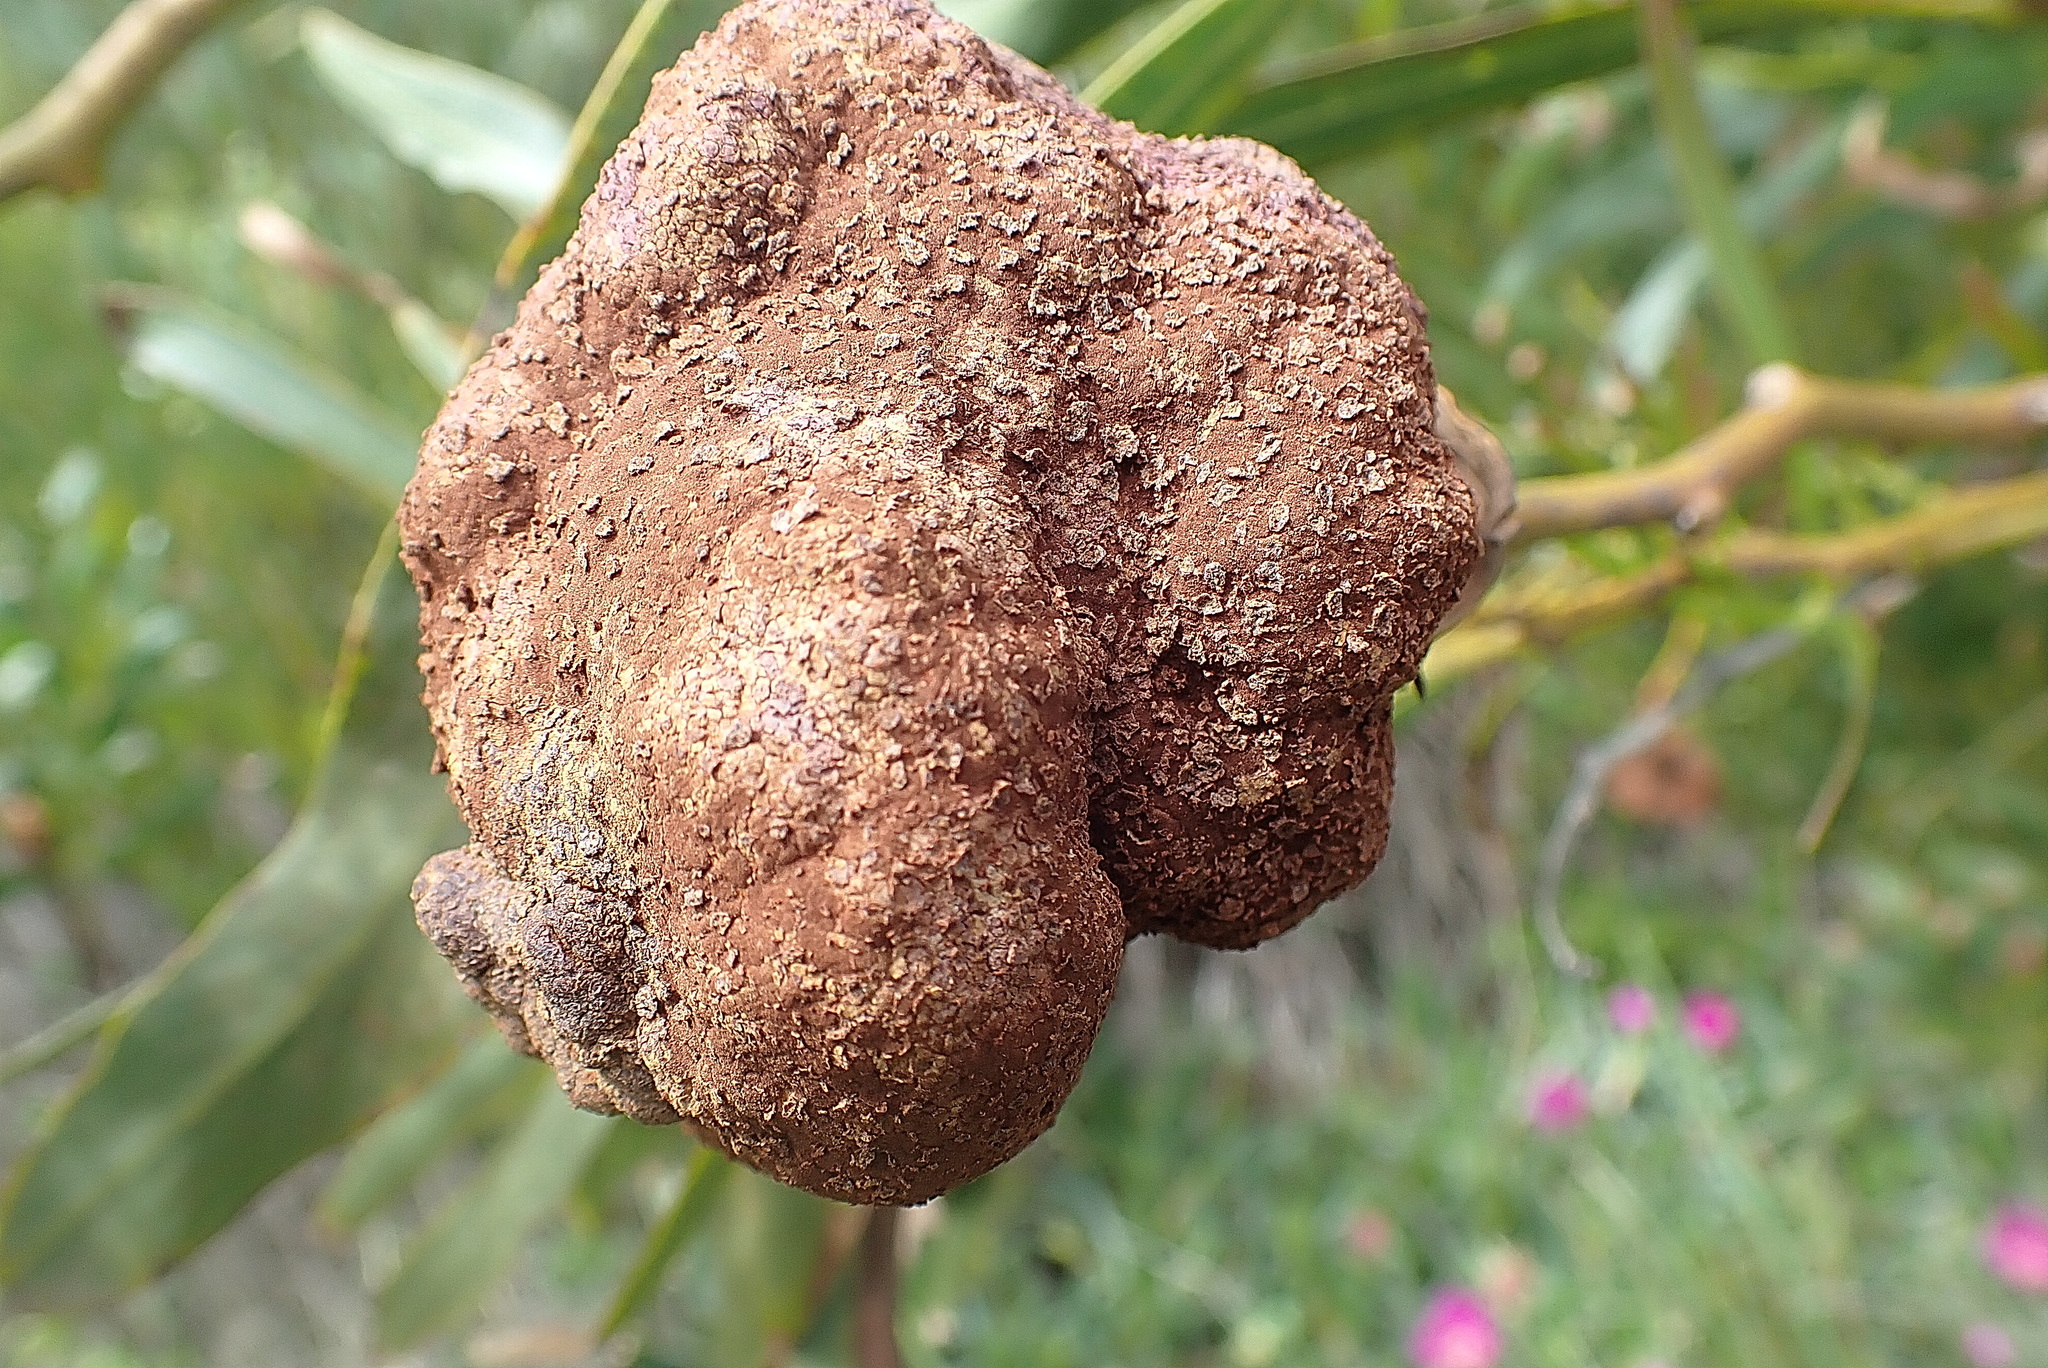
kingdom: Fungi
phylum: Basidiomycota
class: Pucciniomycetes
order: Pucciniales
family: Uromycladiaceae
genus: Uromycladium
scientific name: Uromycladium morrisii
